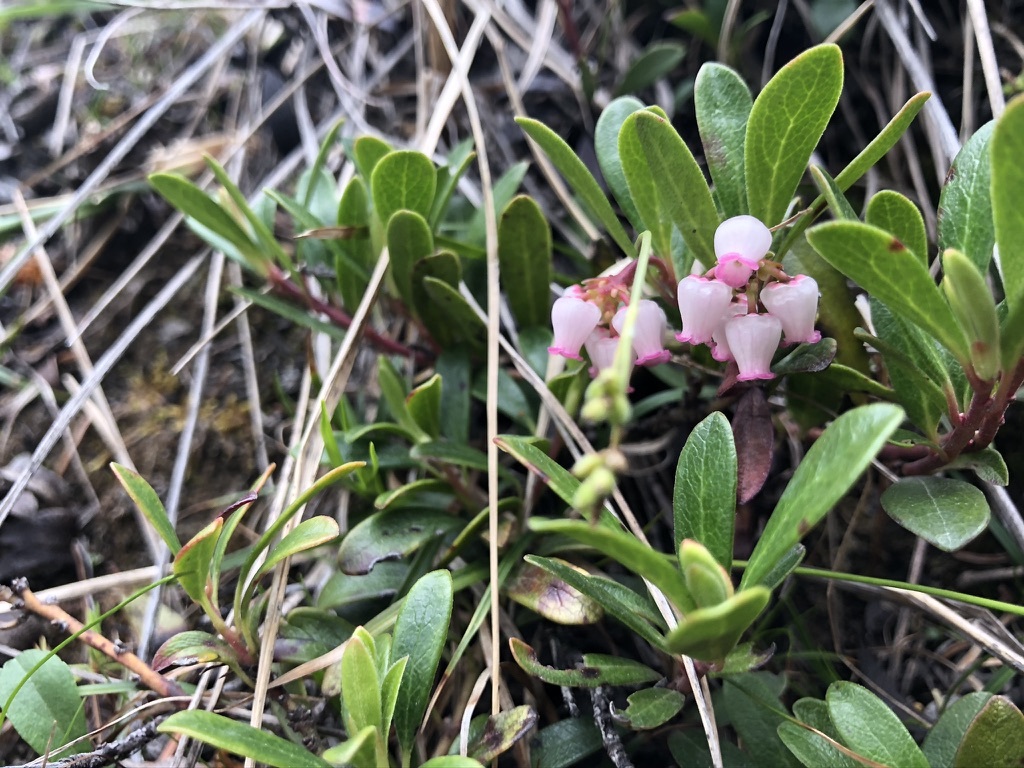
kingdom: Plantae
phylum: Tracheophyta
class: Magnoliopsida
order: Ericales
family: Ericaceae
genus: Arctostaphylos
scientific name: Arctostaphylos uva-ursi
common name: Bearberry
